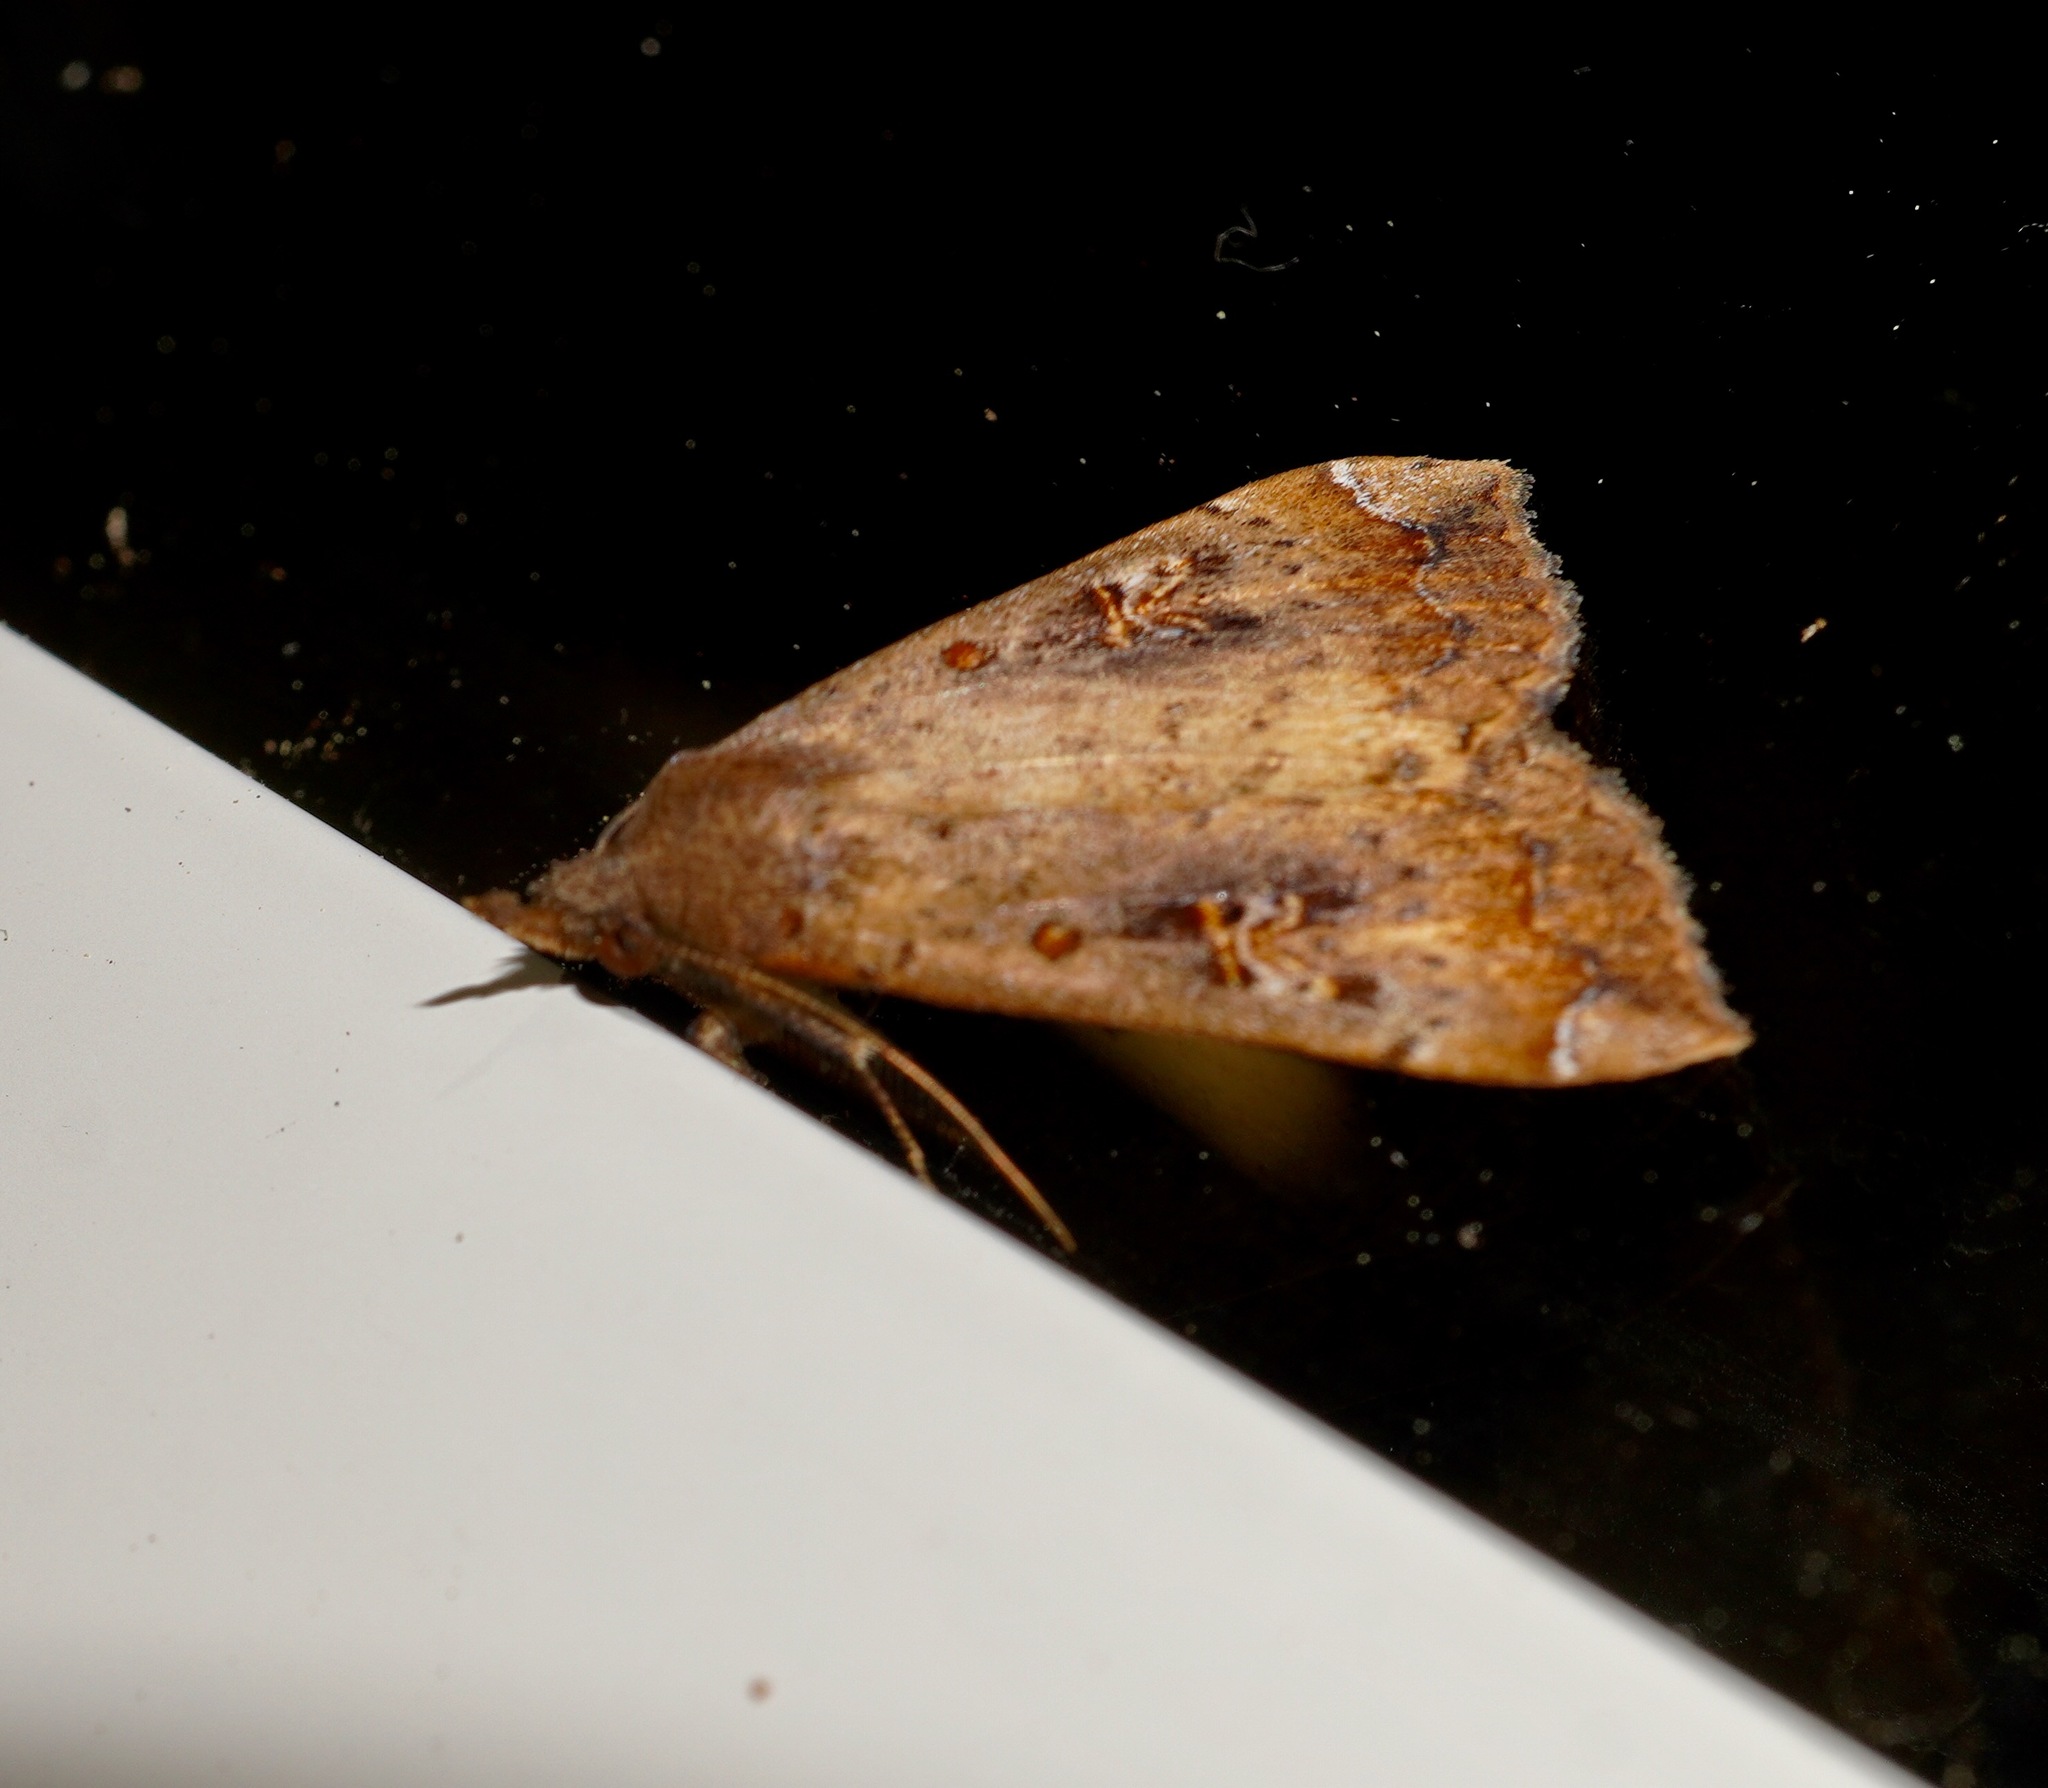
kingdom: Animalia
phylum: Arthropoda
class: Insecta
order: Lepidoptera
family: Erebidae
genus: Rhapsa
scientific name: Rhapsa scotosialis
